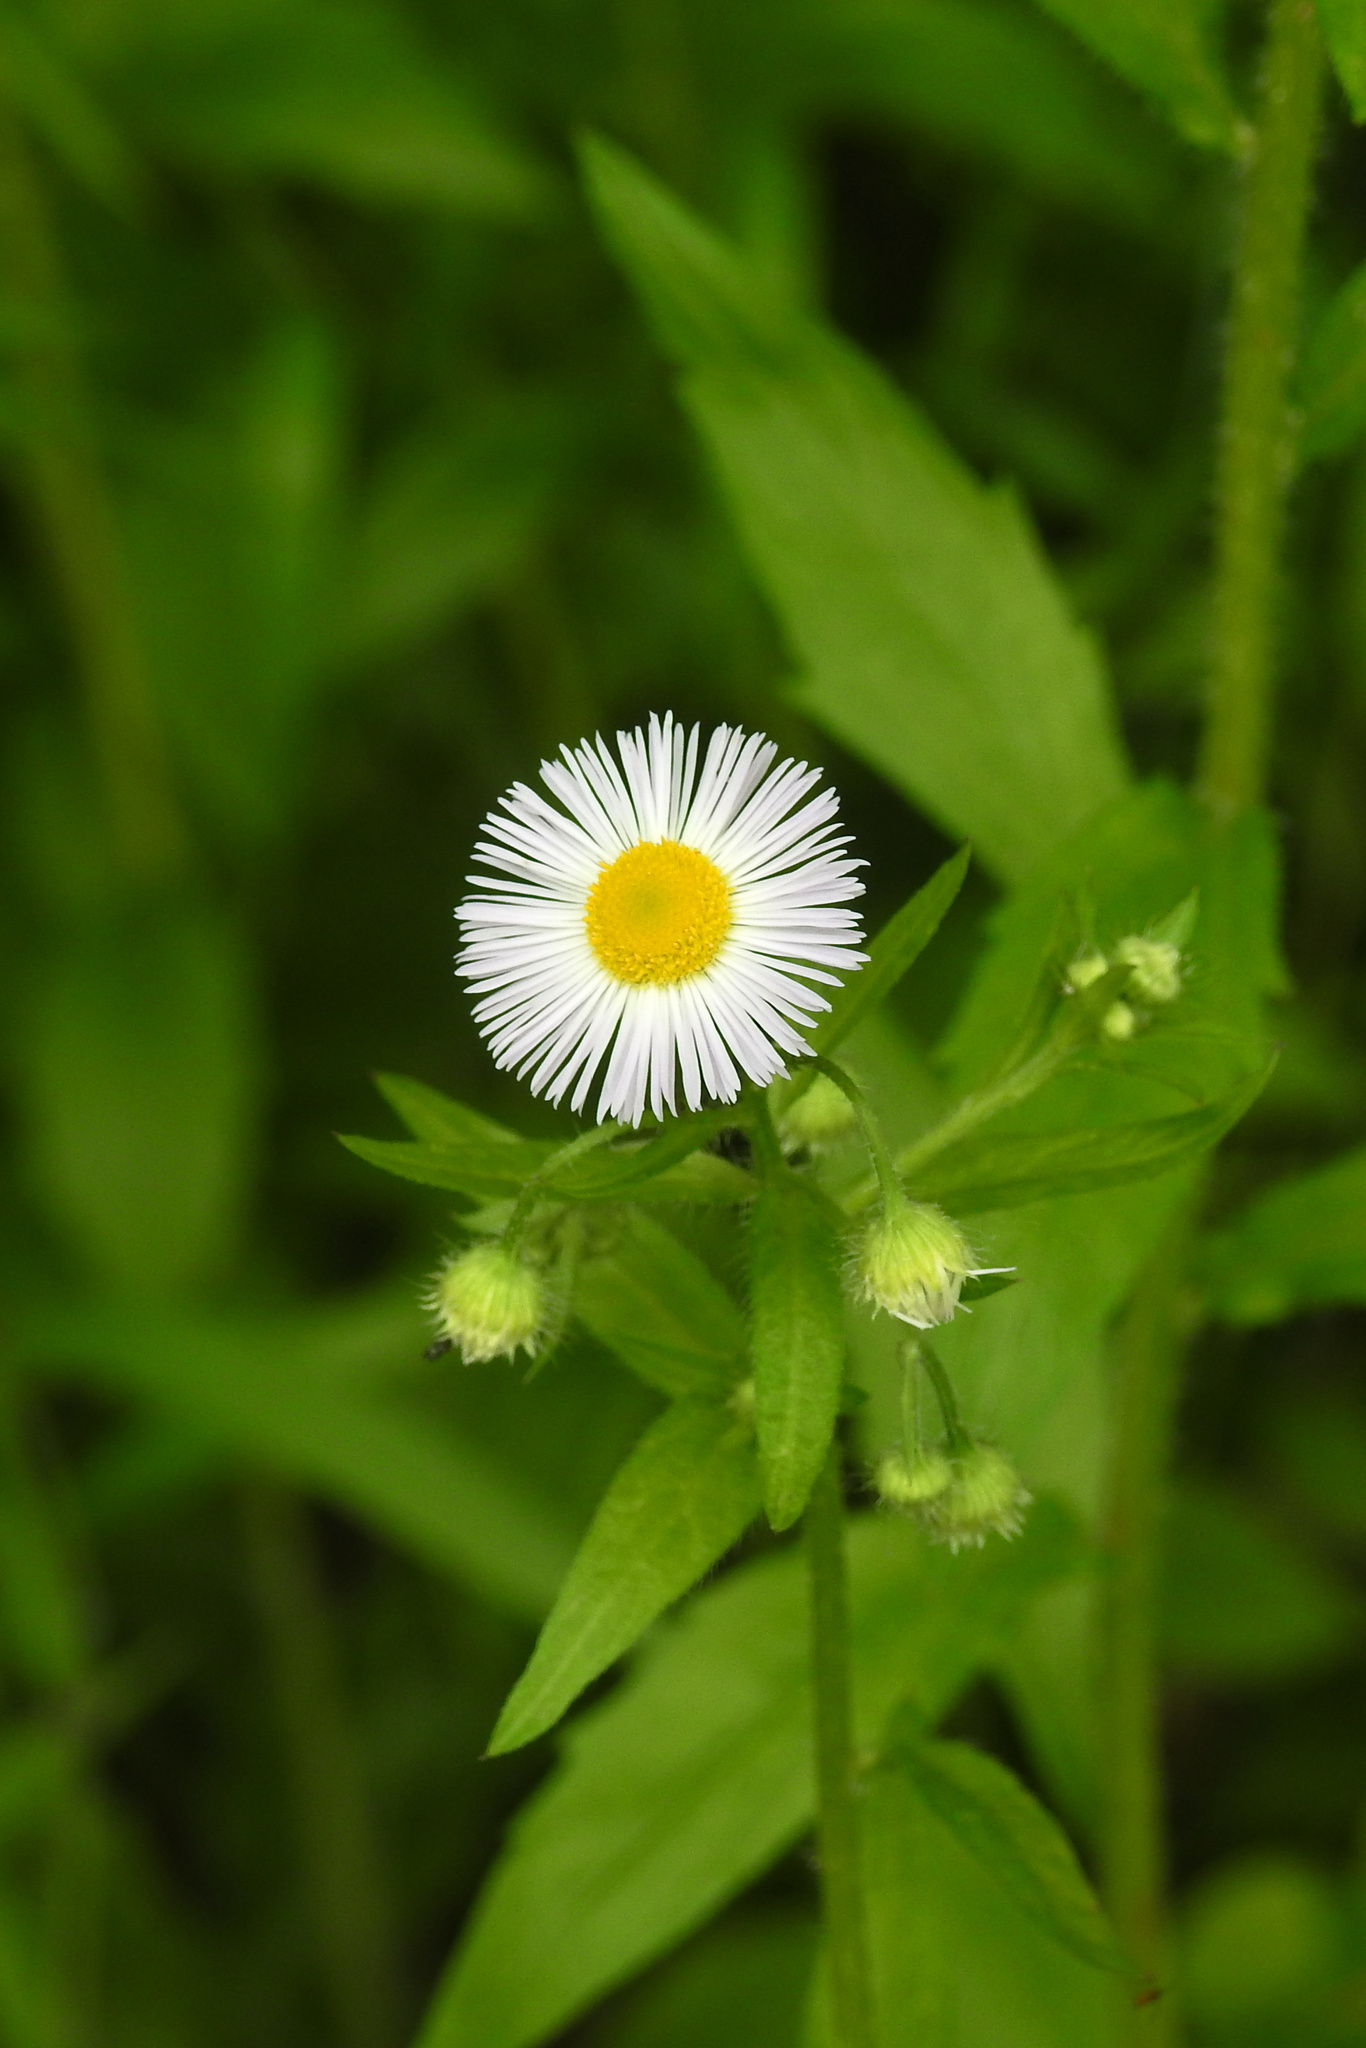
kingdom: Plantae
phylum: Tracheophyta
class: Magnoliopsida
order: Asterales
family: Asteraceae
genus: Erigeron
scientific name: Erigeron annuus
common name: Tall fleabane
